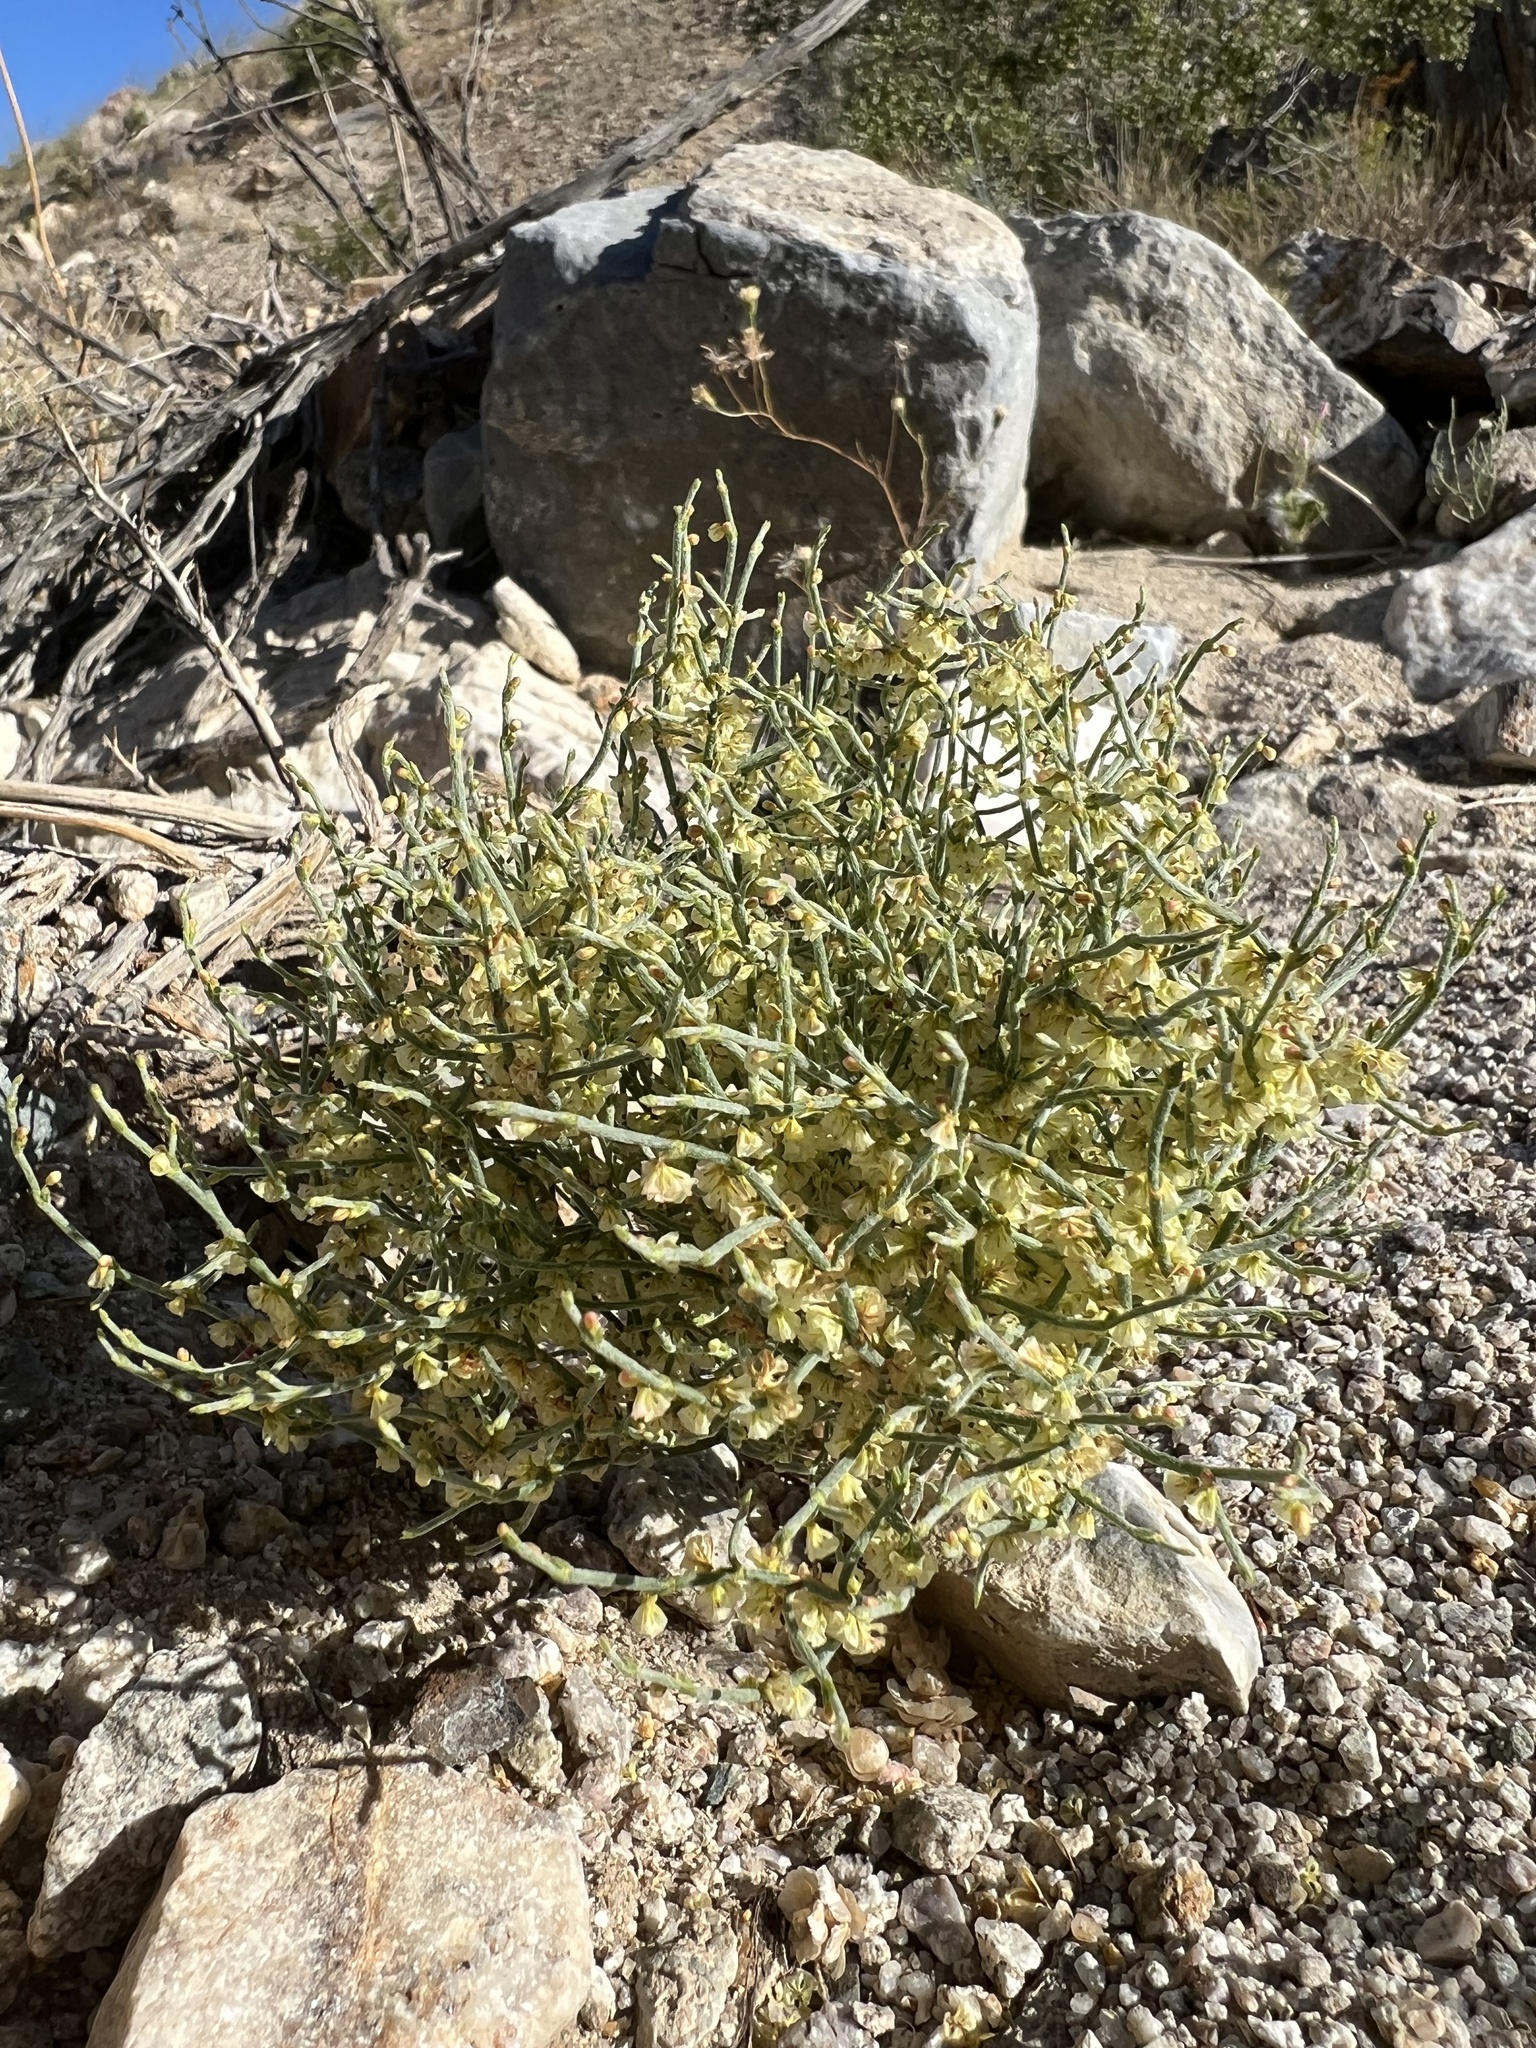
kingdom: Plantae
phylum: Tracheophyta
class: Magnoliopsida
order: Caryophyllales
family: Polygonaceae
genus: Eriogonum
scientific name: Eriogonum nidularium
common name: Bird's-nest wild buckwheat
